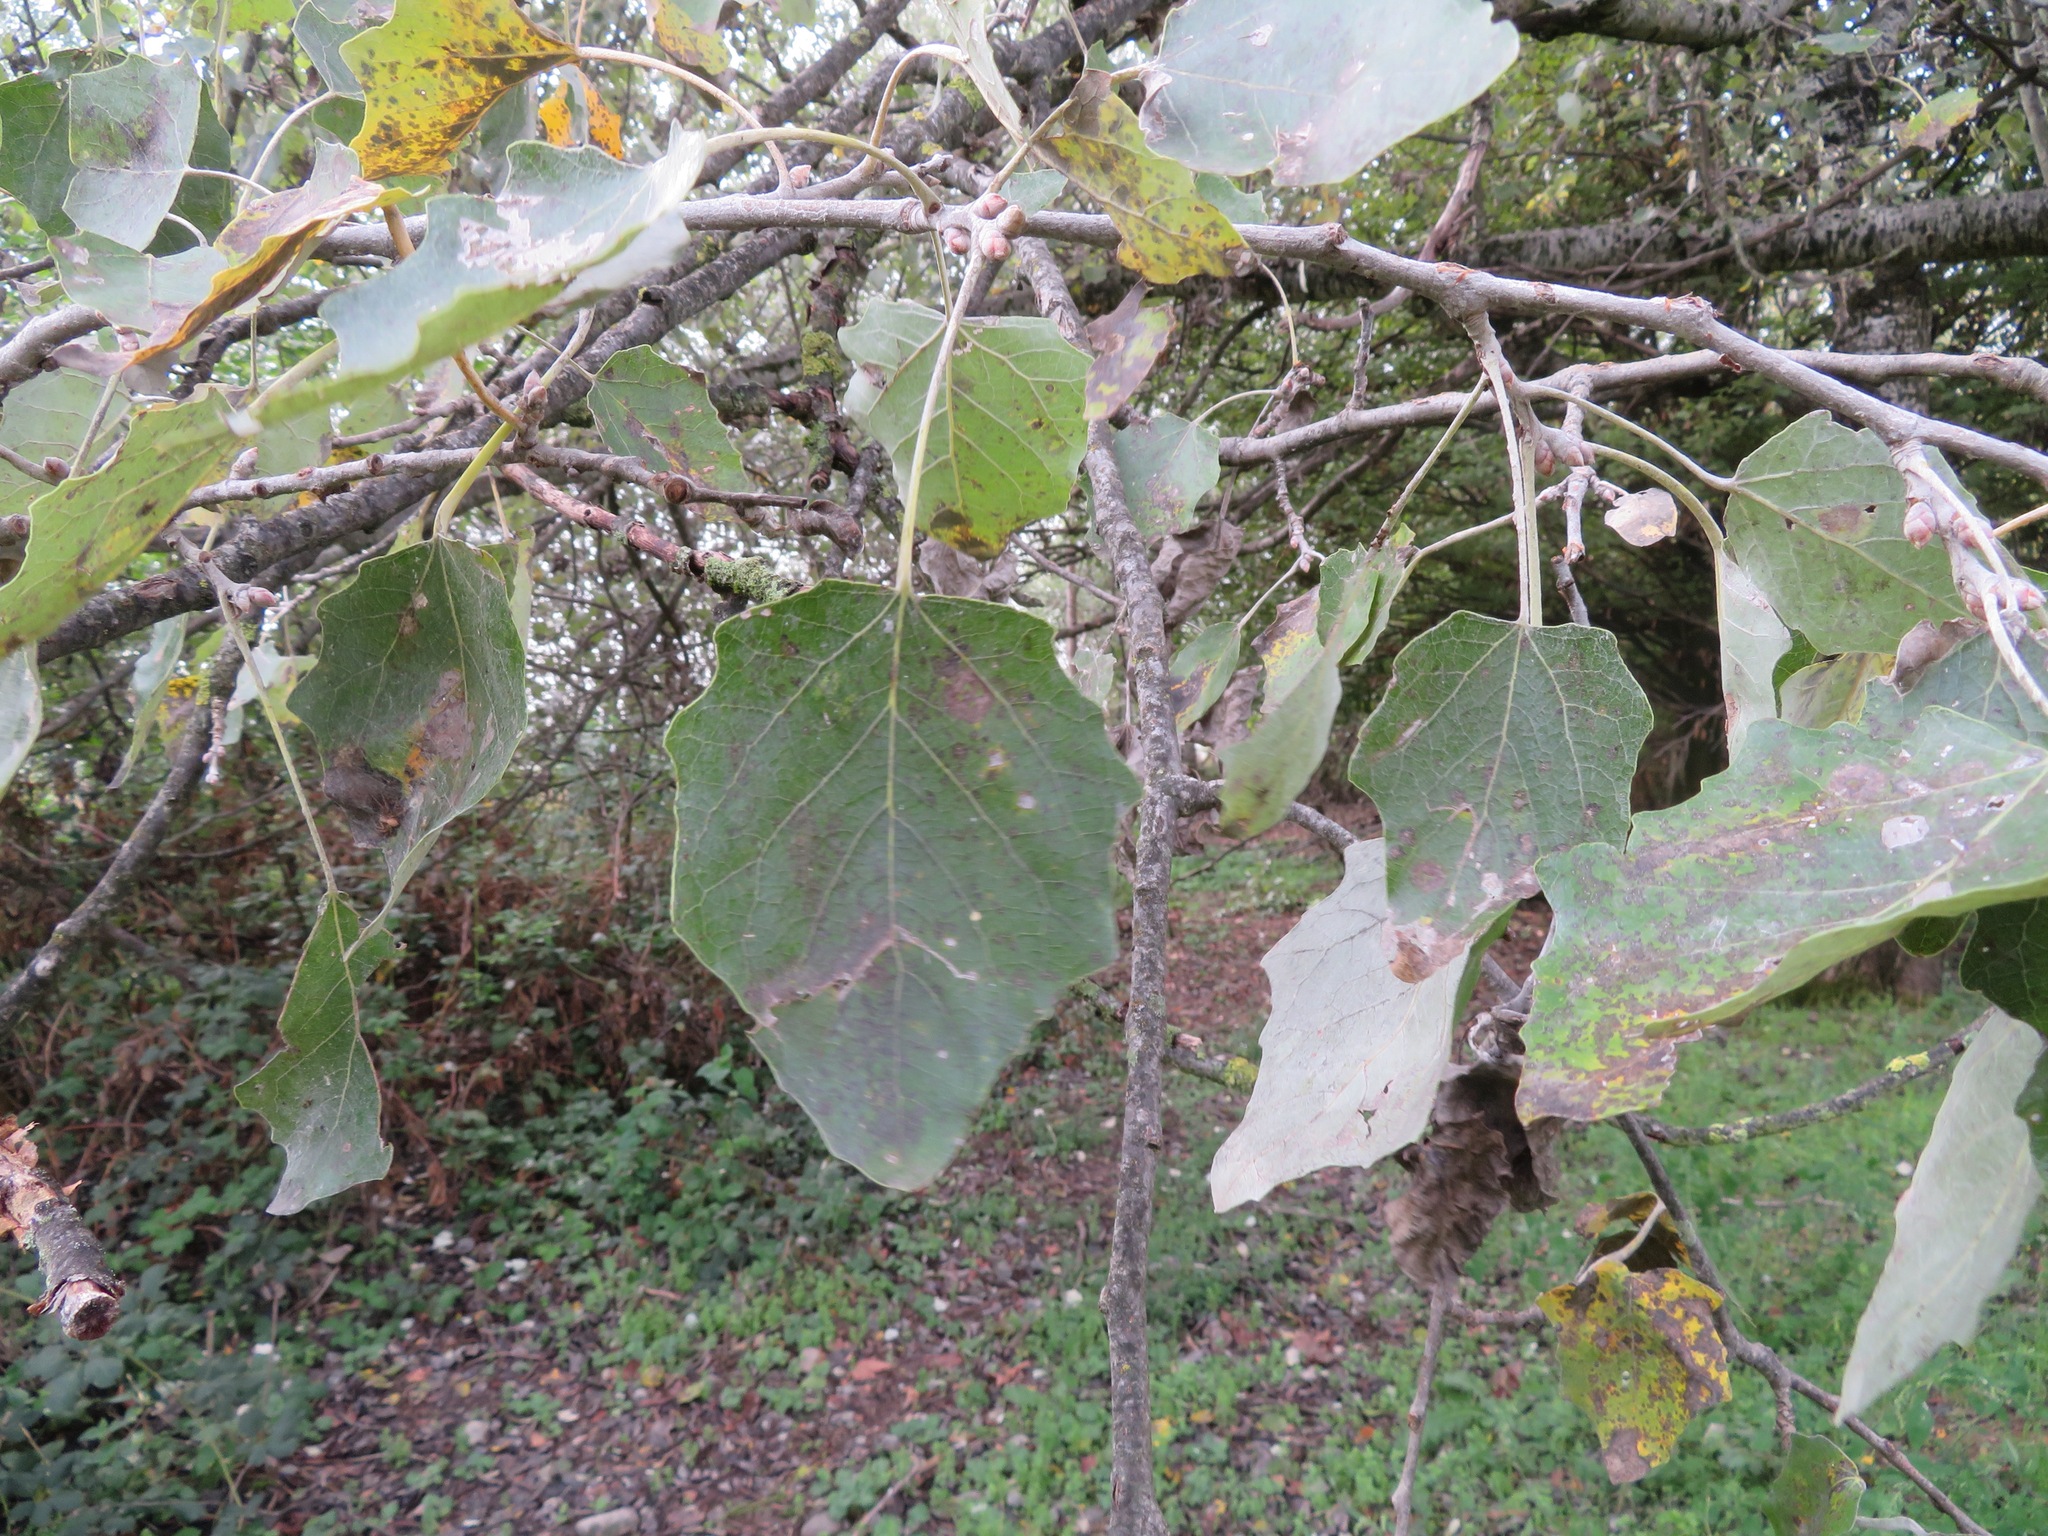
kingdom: Plantae
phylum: Tracheophyta
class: Magnoliopsida
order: Malpighiales
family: Salicaceae
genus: Populus
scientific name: Populus alba
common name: White poplar
